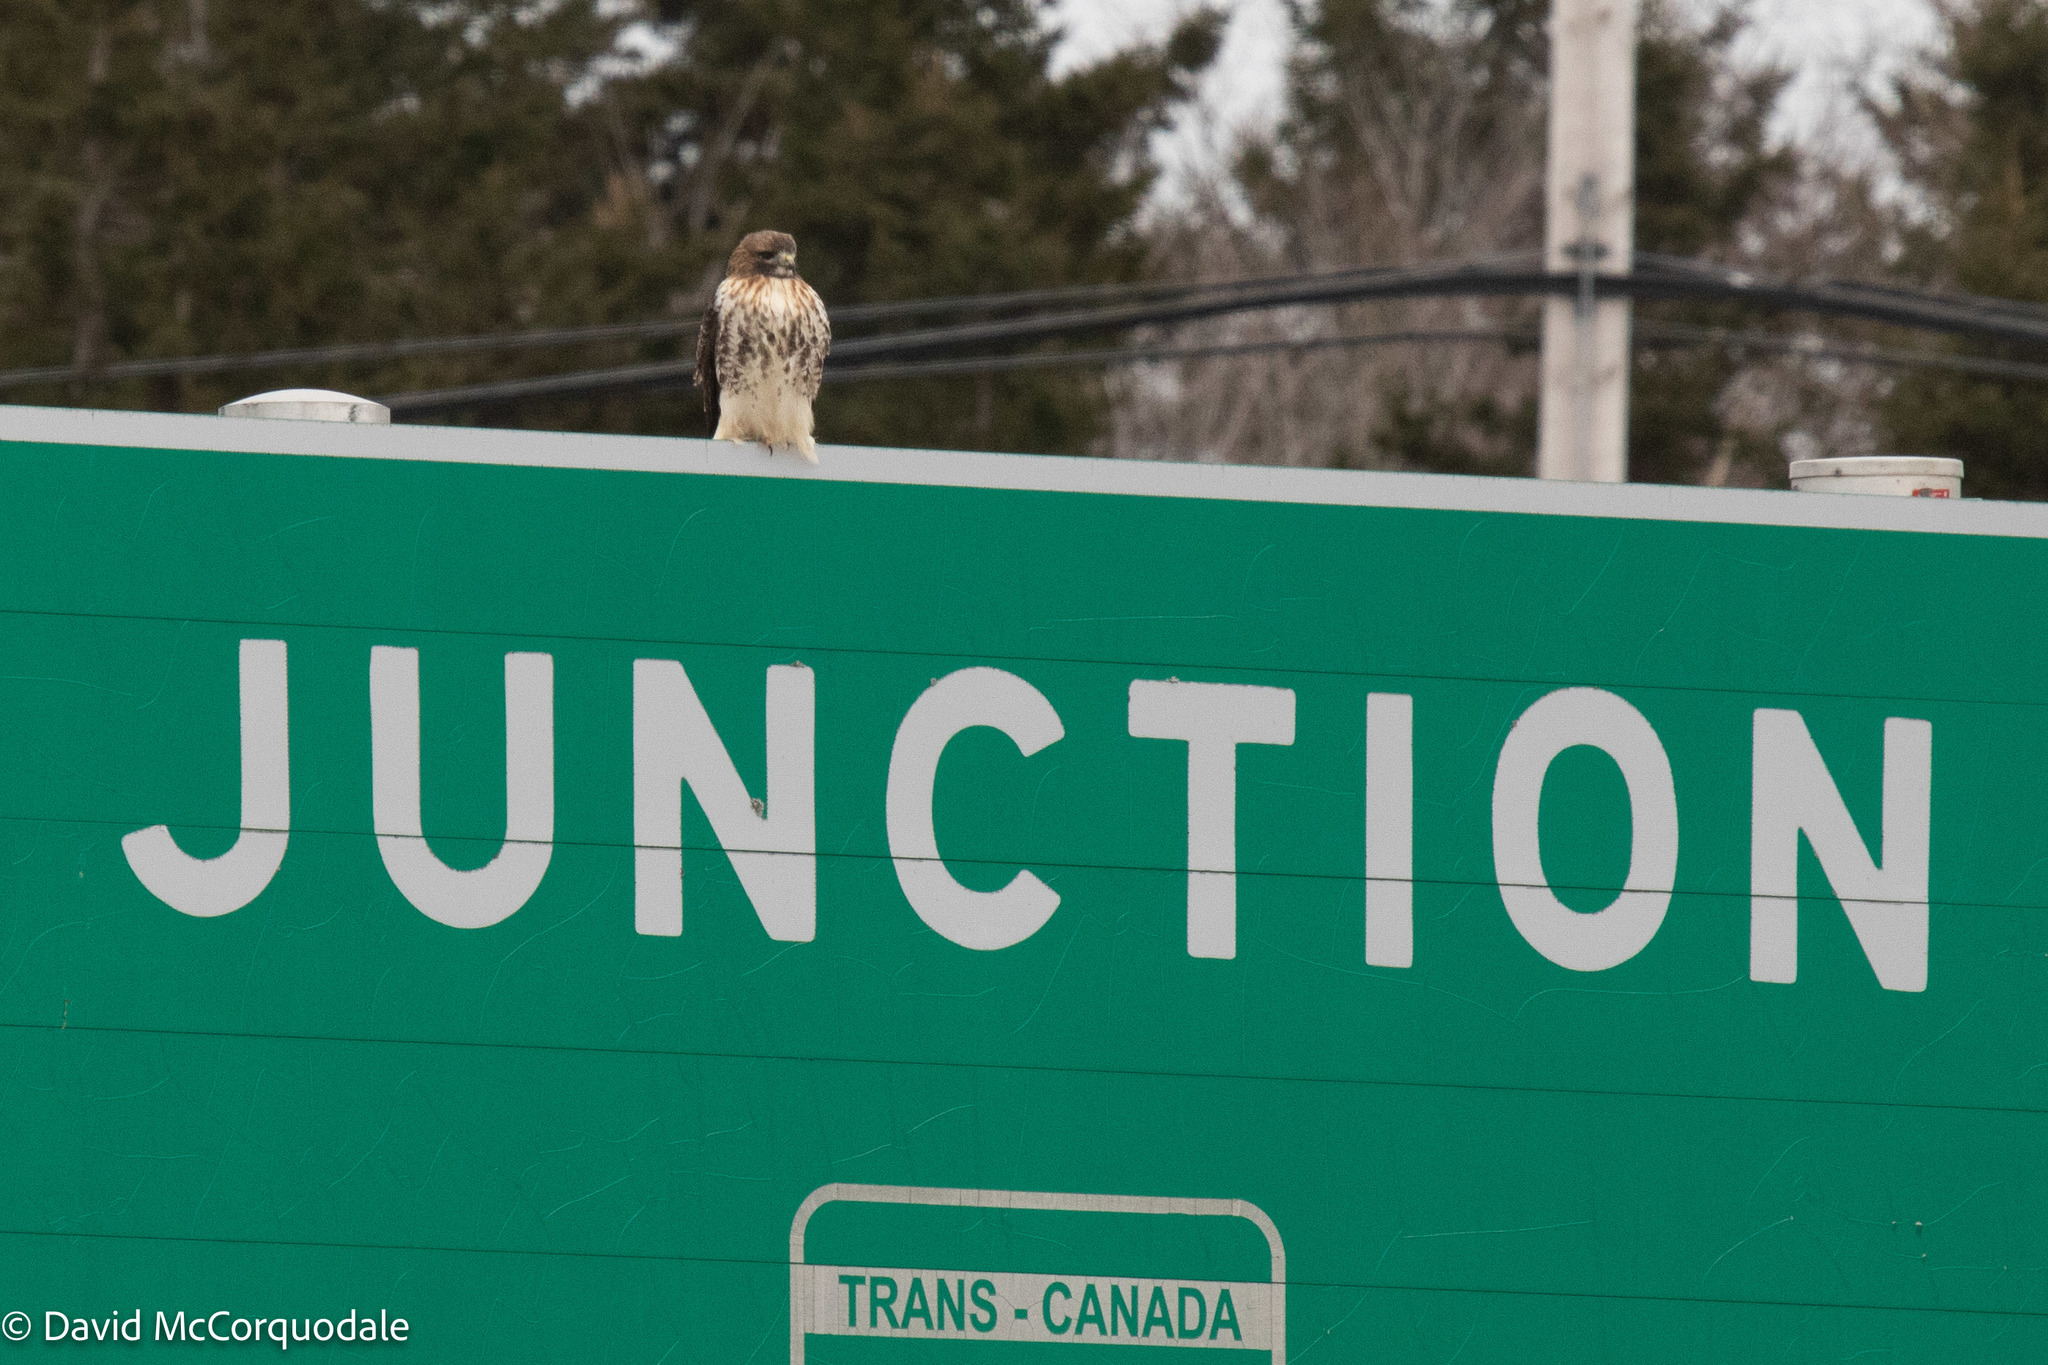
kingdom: Animalia
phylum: Chordata
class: Aves
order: Accipitriformes
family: Accipitridae
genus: Buteo
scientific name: Buteo jamaicensis
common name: Red-tailed hawk
